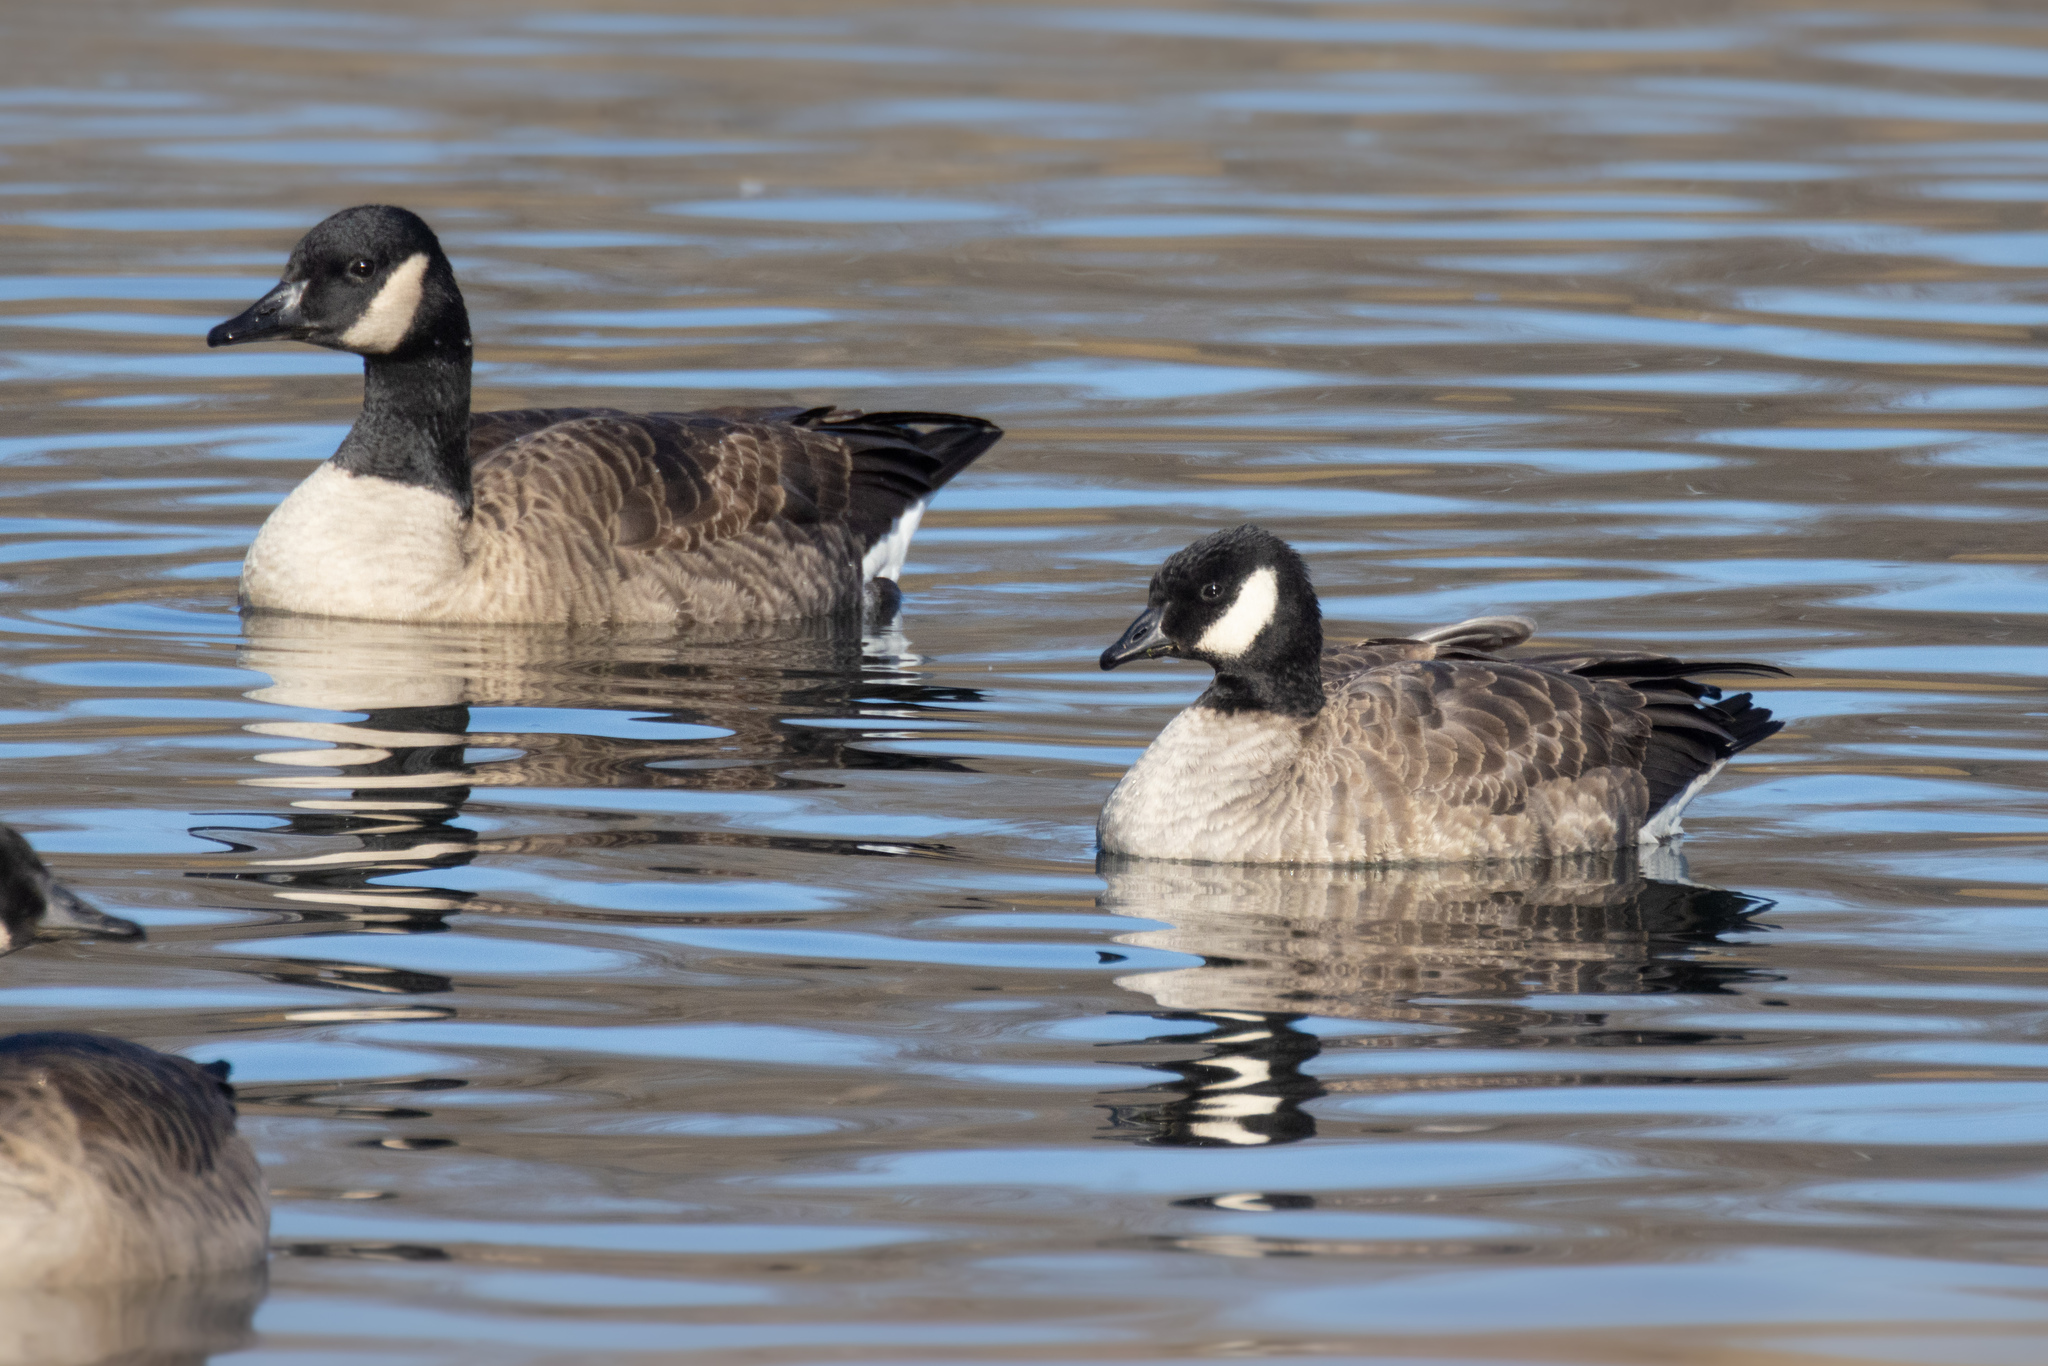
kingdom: Animalia
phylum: Chordata
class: Aves
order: Anseriformes
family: Anatidae
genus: Branta
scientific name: Branta hutchinsii
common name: Cackling goose
